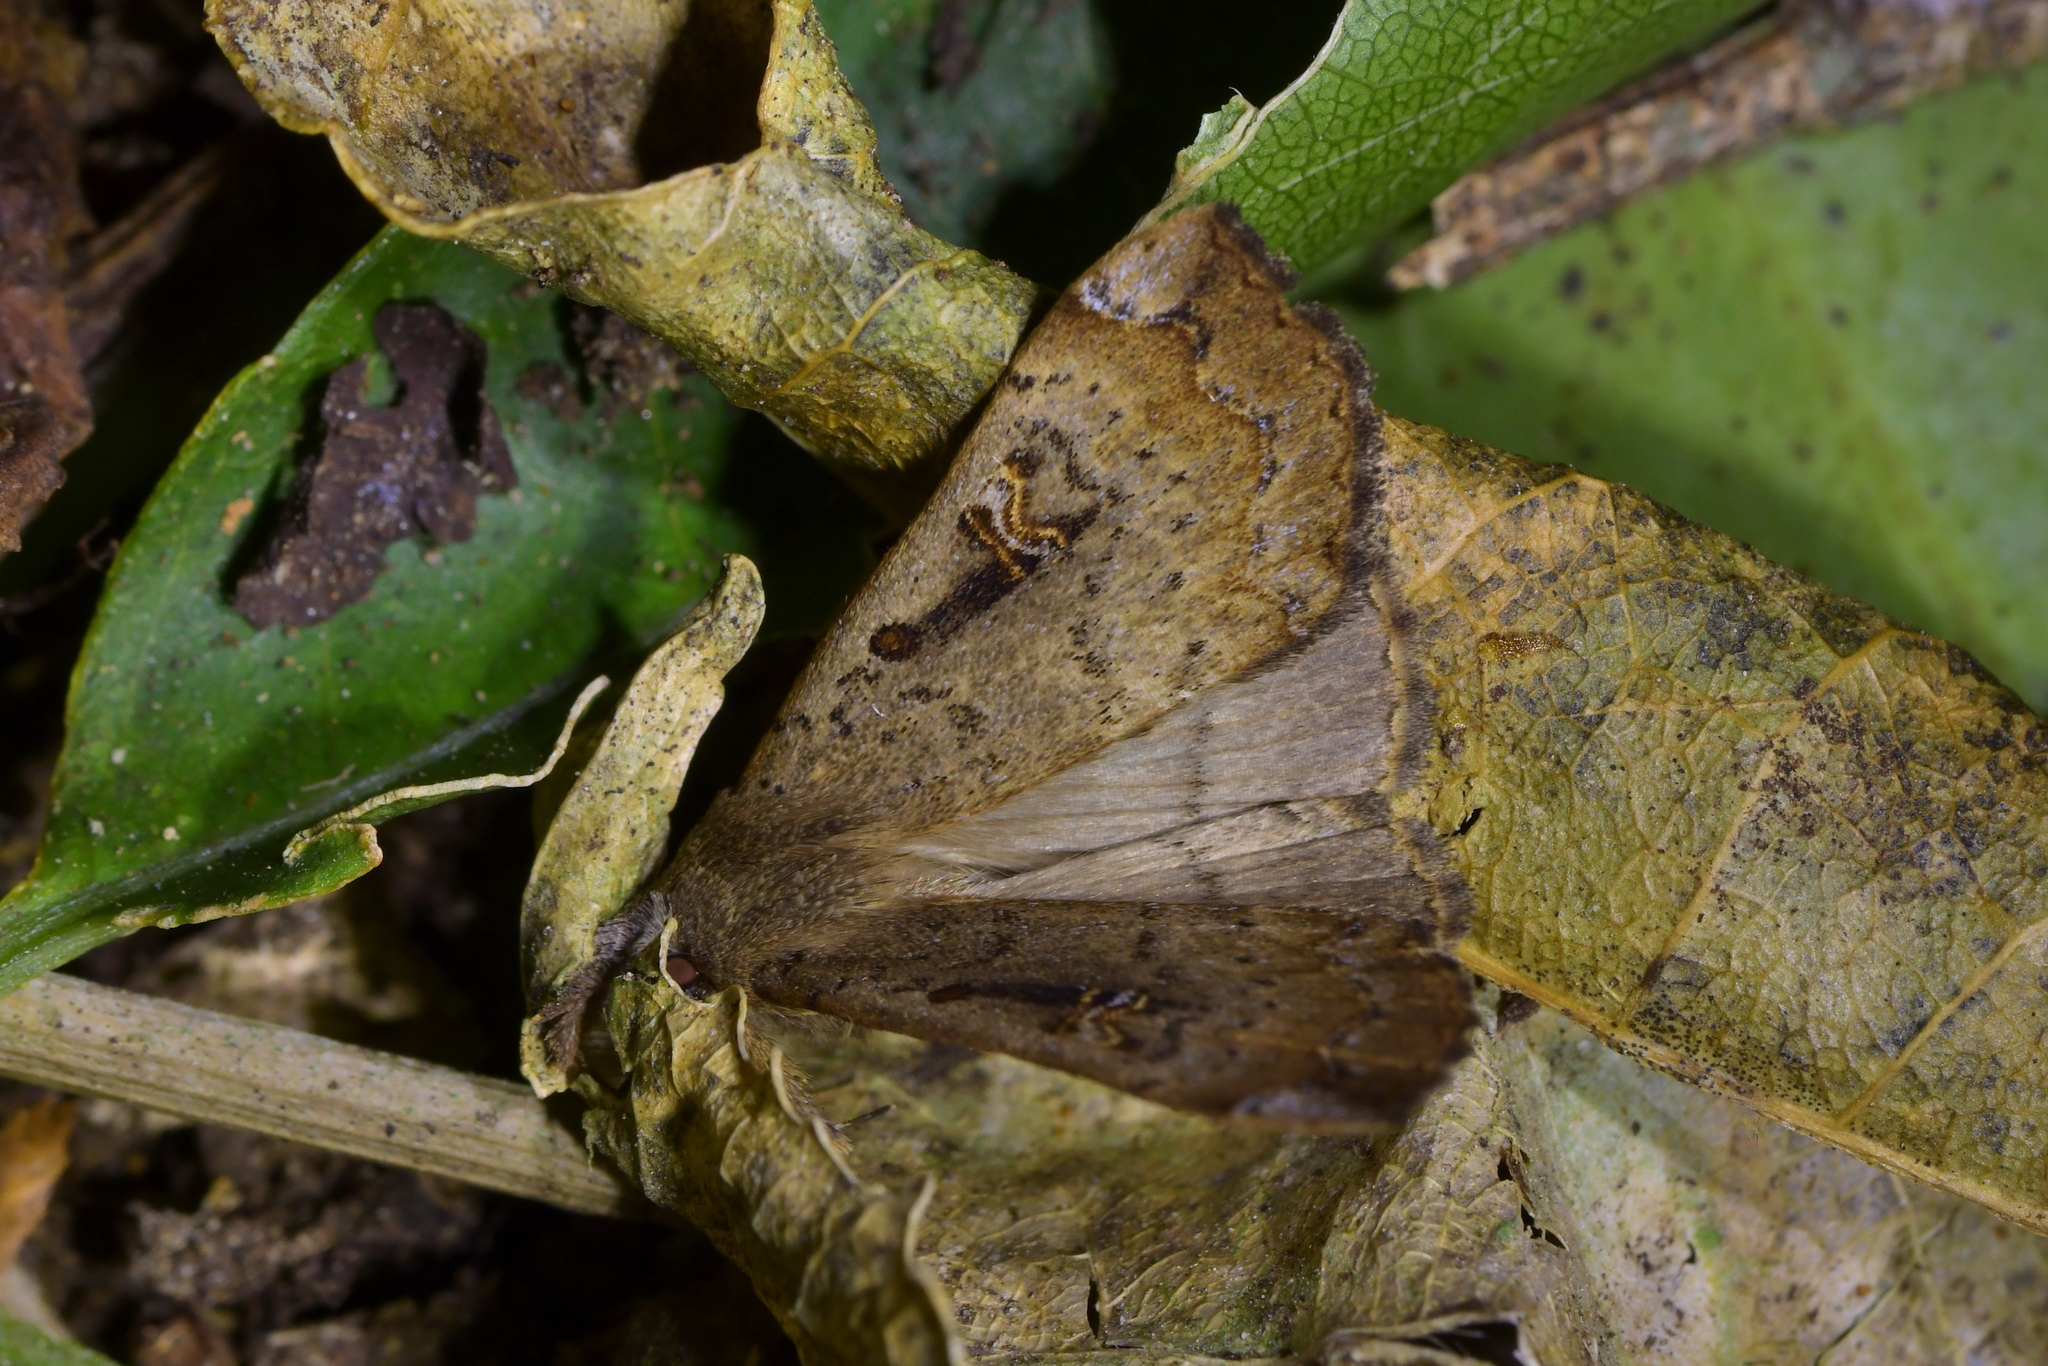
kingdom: Animalia
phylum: Arthropoda
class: Insecta
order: Lepidoptera
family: Erebidae
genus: Rhapsa
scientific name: Rhapsa scotosialis
